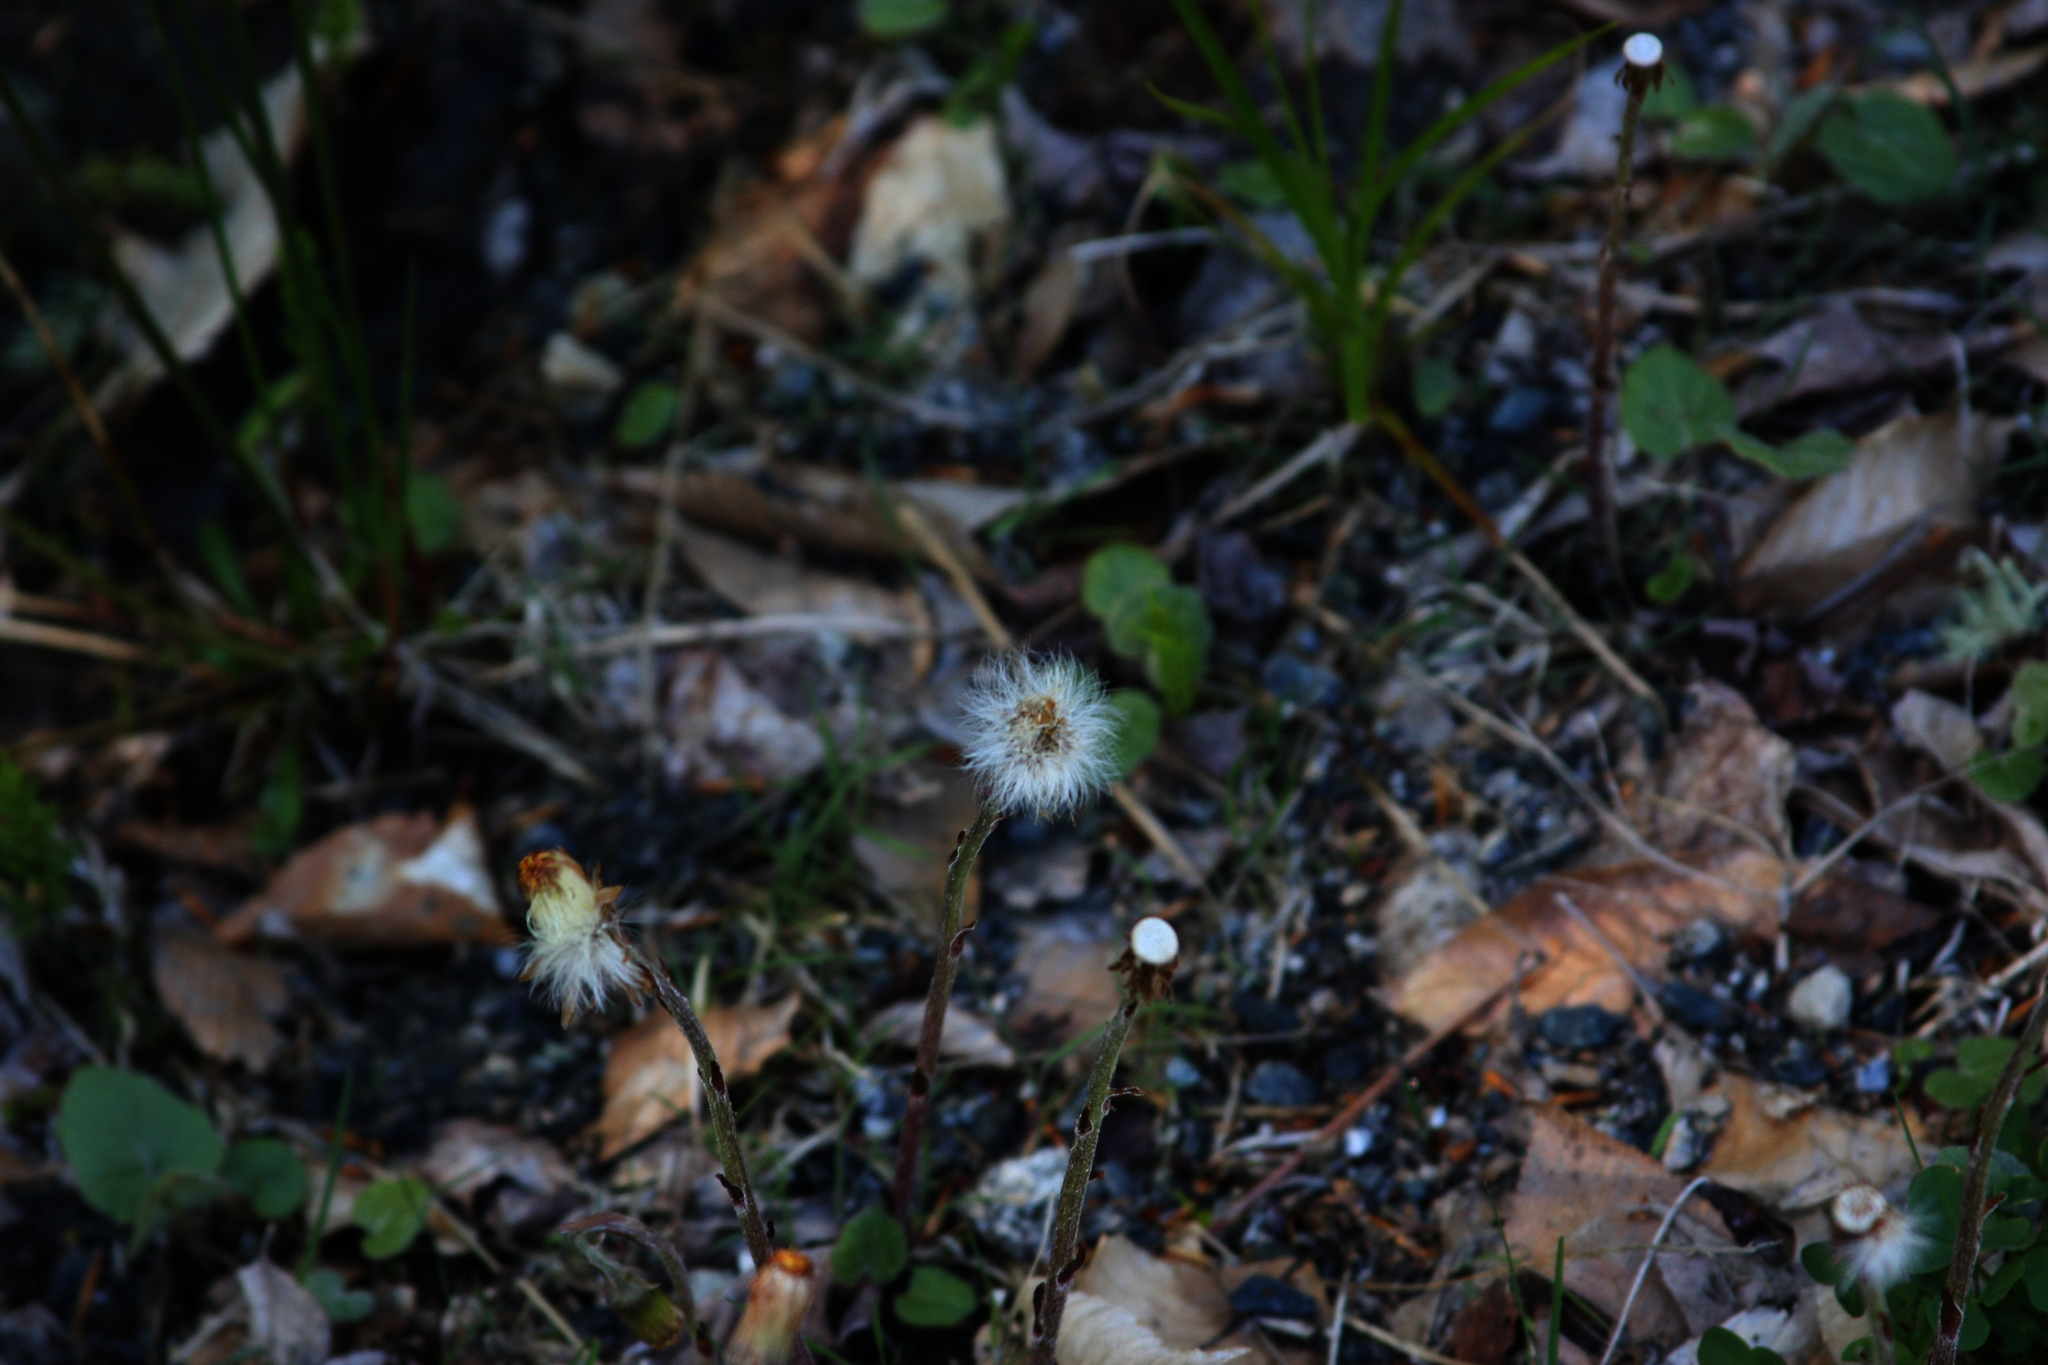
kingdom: Plantae
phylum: Tracheophyta
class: Magnoliopsida
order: Asterales
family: Asteraceae
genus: Tussilago
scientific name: Tussilago farfara
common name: Coltsfoot
